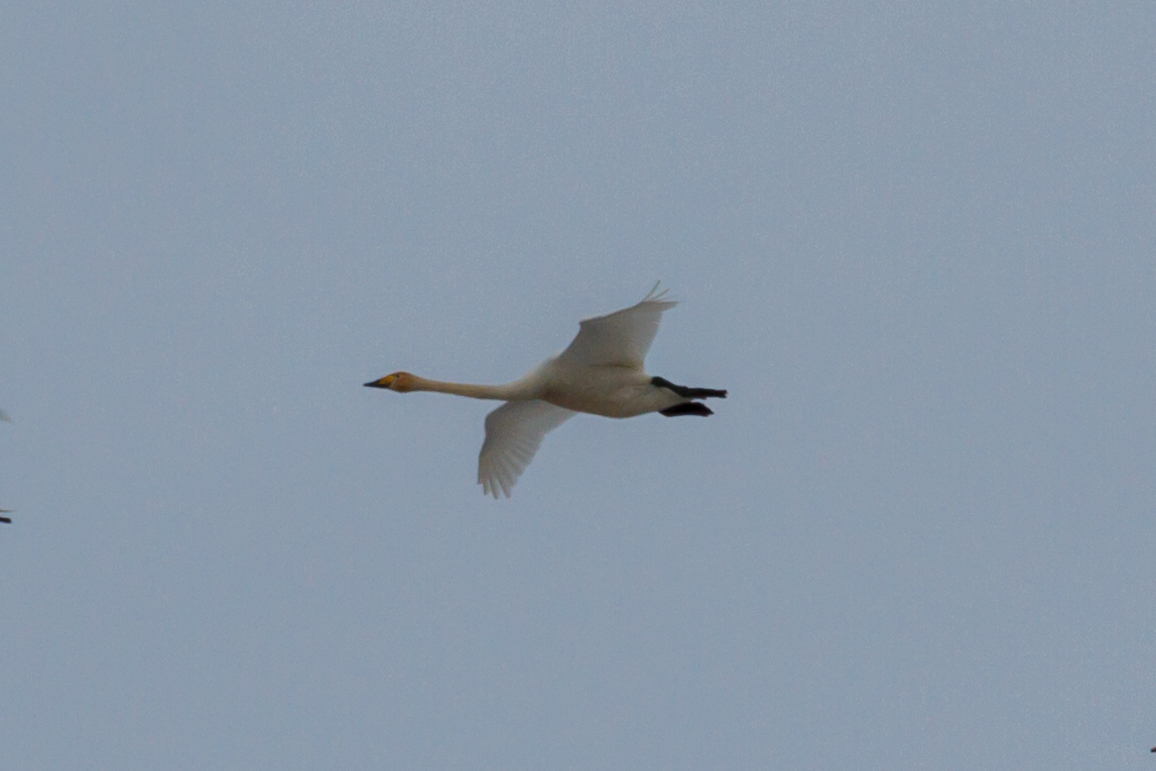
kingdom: Animalia
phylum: Chordata
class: Aves
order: Anseriformes
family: Anatidae
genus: Cygnus
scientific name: Cygnus cygnus
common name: Whooper swan
